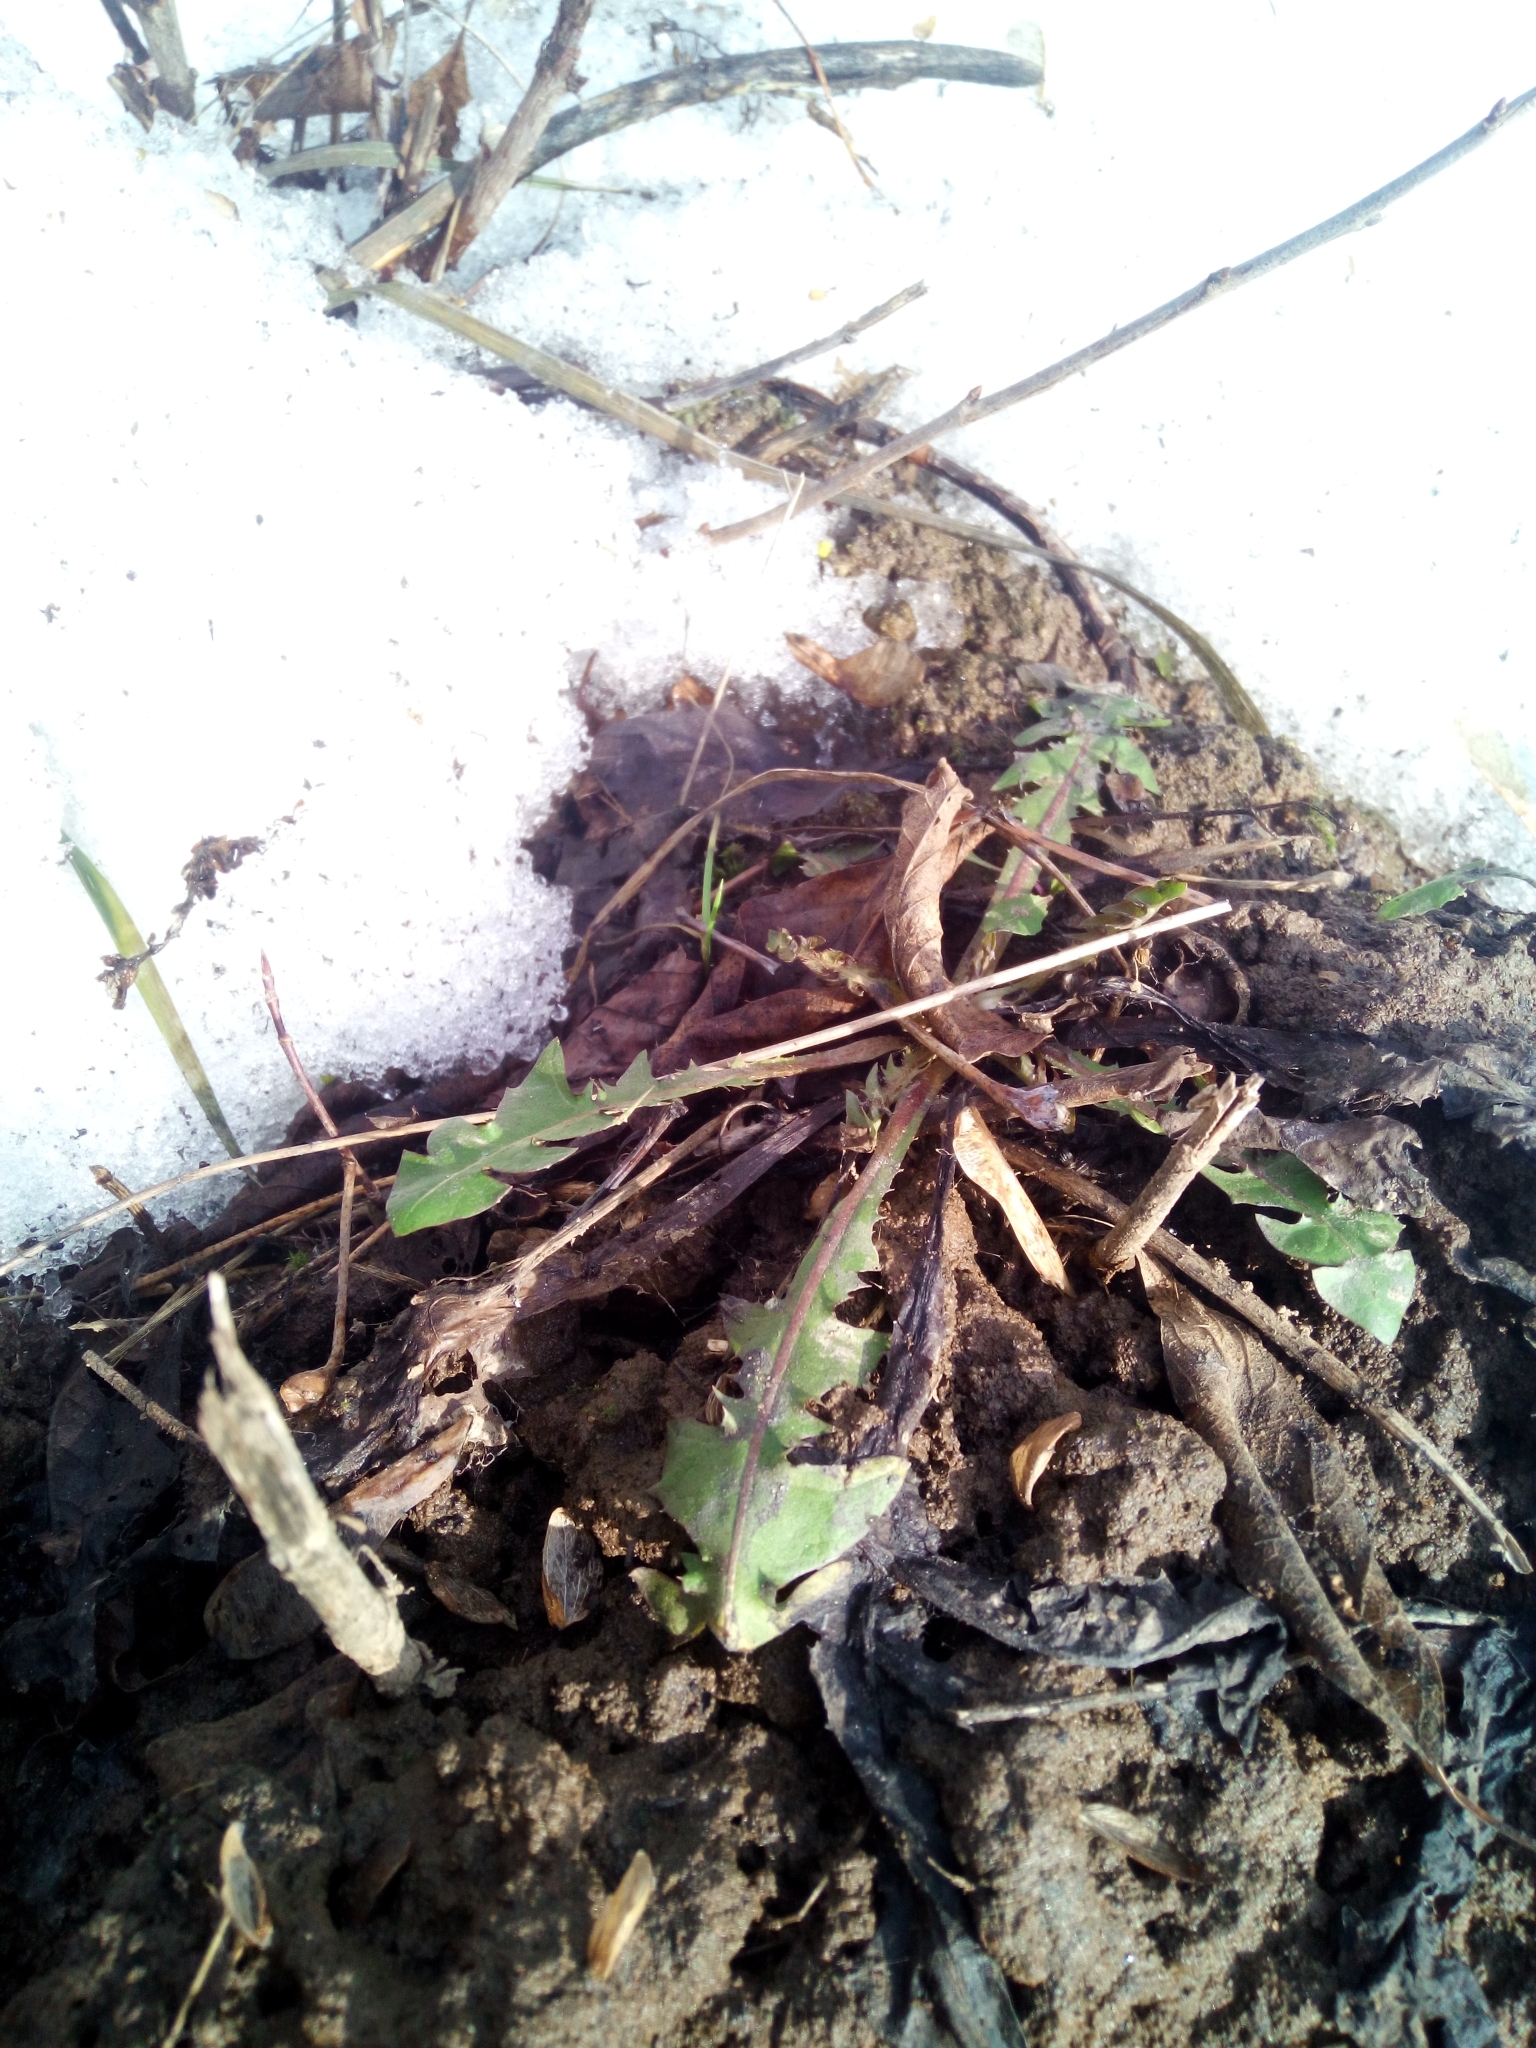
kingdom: Plantae
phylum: Tracheophyta
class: Magnoliopsida
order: Asterales
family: Asteraceae
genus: Taraxacum
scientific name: Taraxacum officinale
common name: Common dandelion
